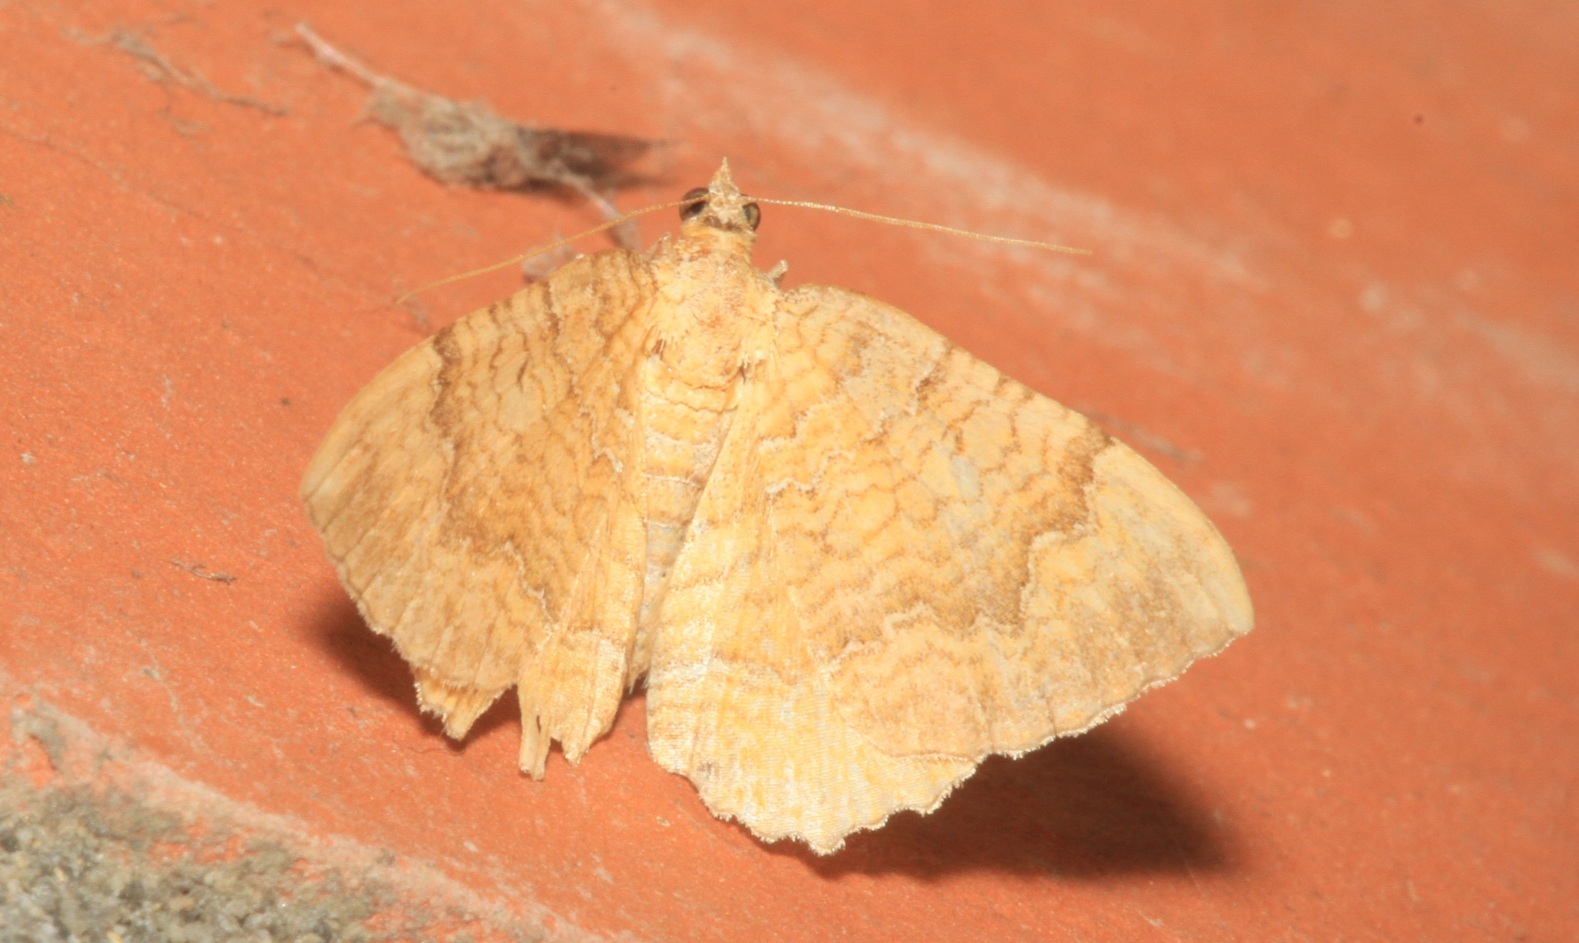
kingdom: Animalia
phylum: Arthropoda
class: Insecta
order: Lepidoptera
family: Geometridae
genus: Camptogramma
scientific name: Camptogramma bilineata
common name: Yellow shell
